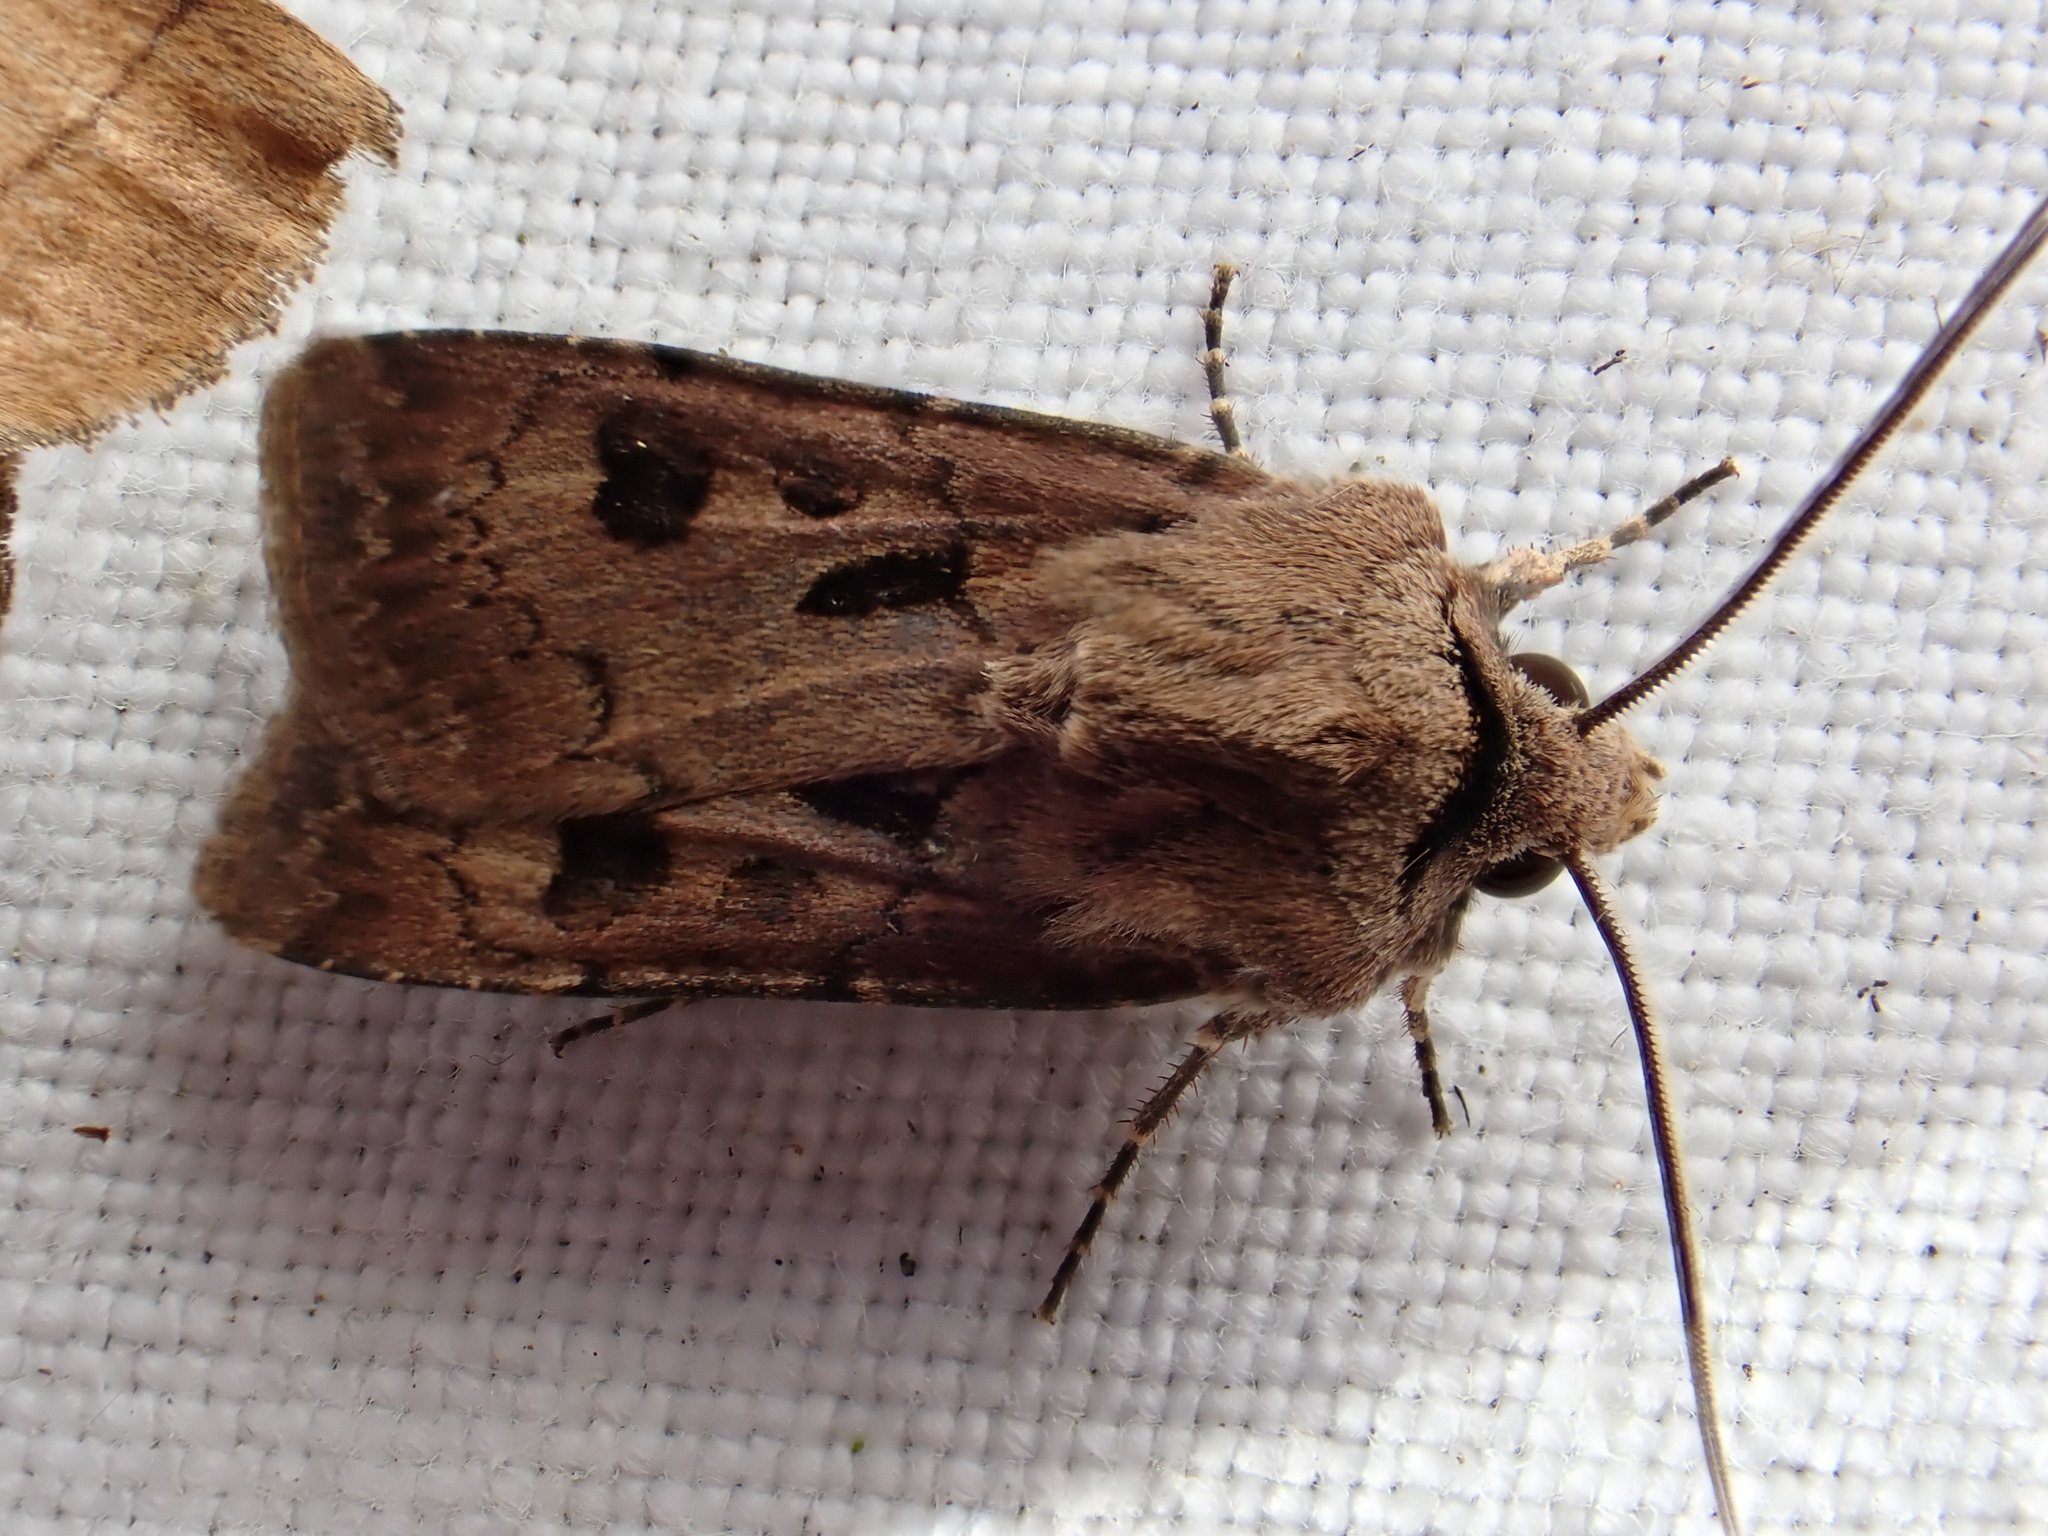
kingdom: Animalia
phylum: Arthropoda
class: Insecta
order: Lepidoptera
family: Noctuidae
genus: Agrotis
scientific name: Agrotis exclamationis
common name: Heart and dart
